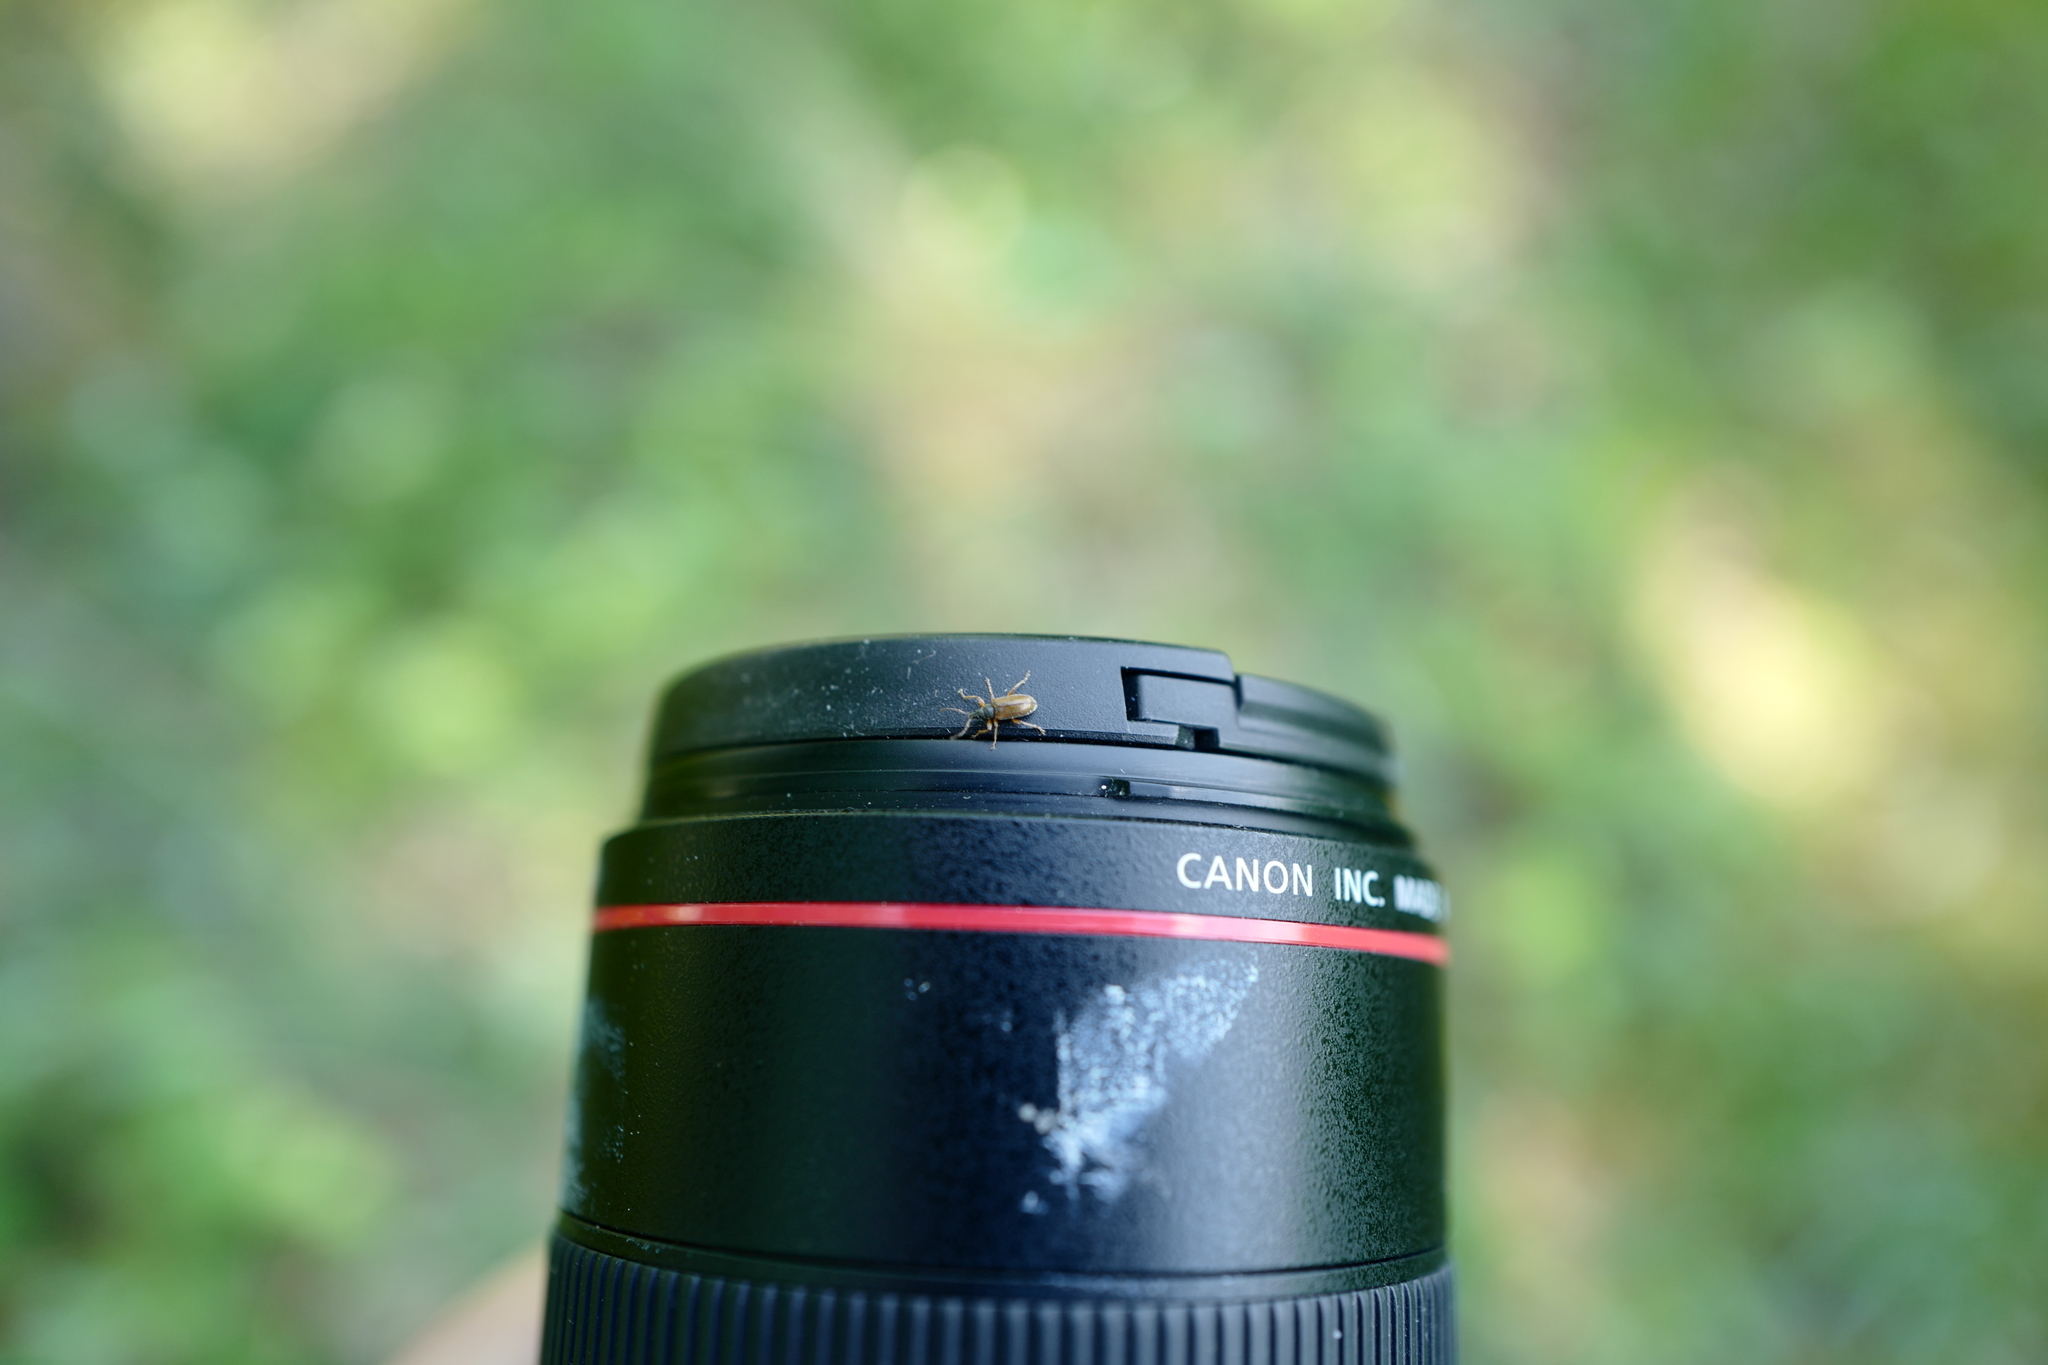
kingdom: Animalia
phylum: Arthropoda
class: Insecta
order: Coleoptera
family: Curculionidae
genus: Phyllobius
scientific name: Phyllobius oblongus
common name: Brown leaf weevil
